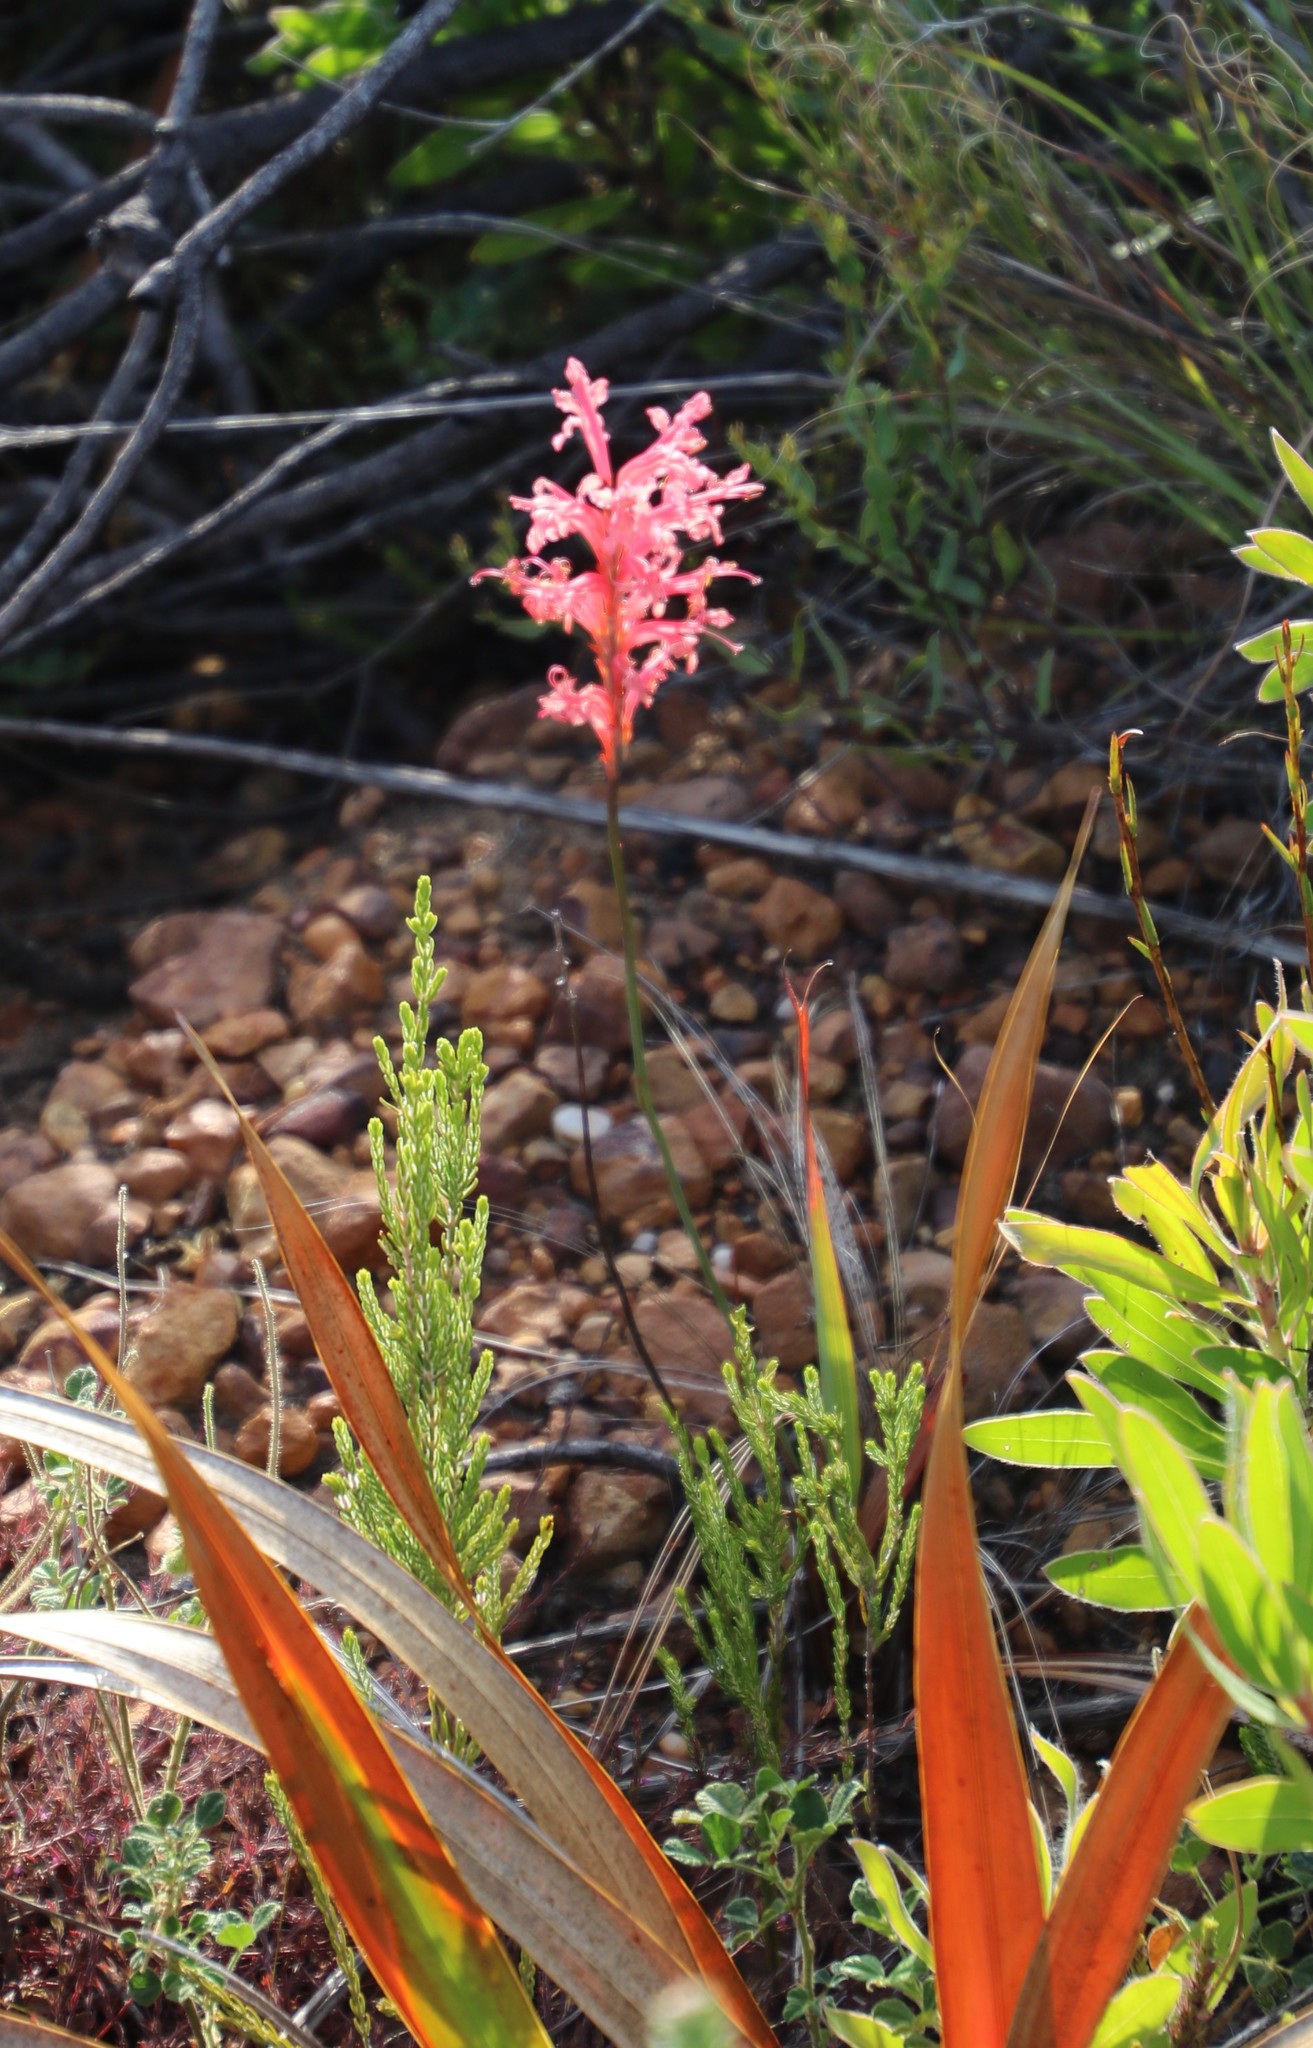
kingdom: Plantae
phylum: Tracheophyta
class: Liliopsida
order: Asparagales
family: Iridaceae
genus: Tritoniopsis
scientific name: Tritoniopsis antholyza
